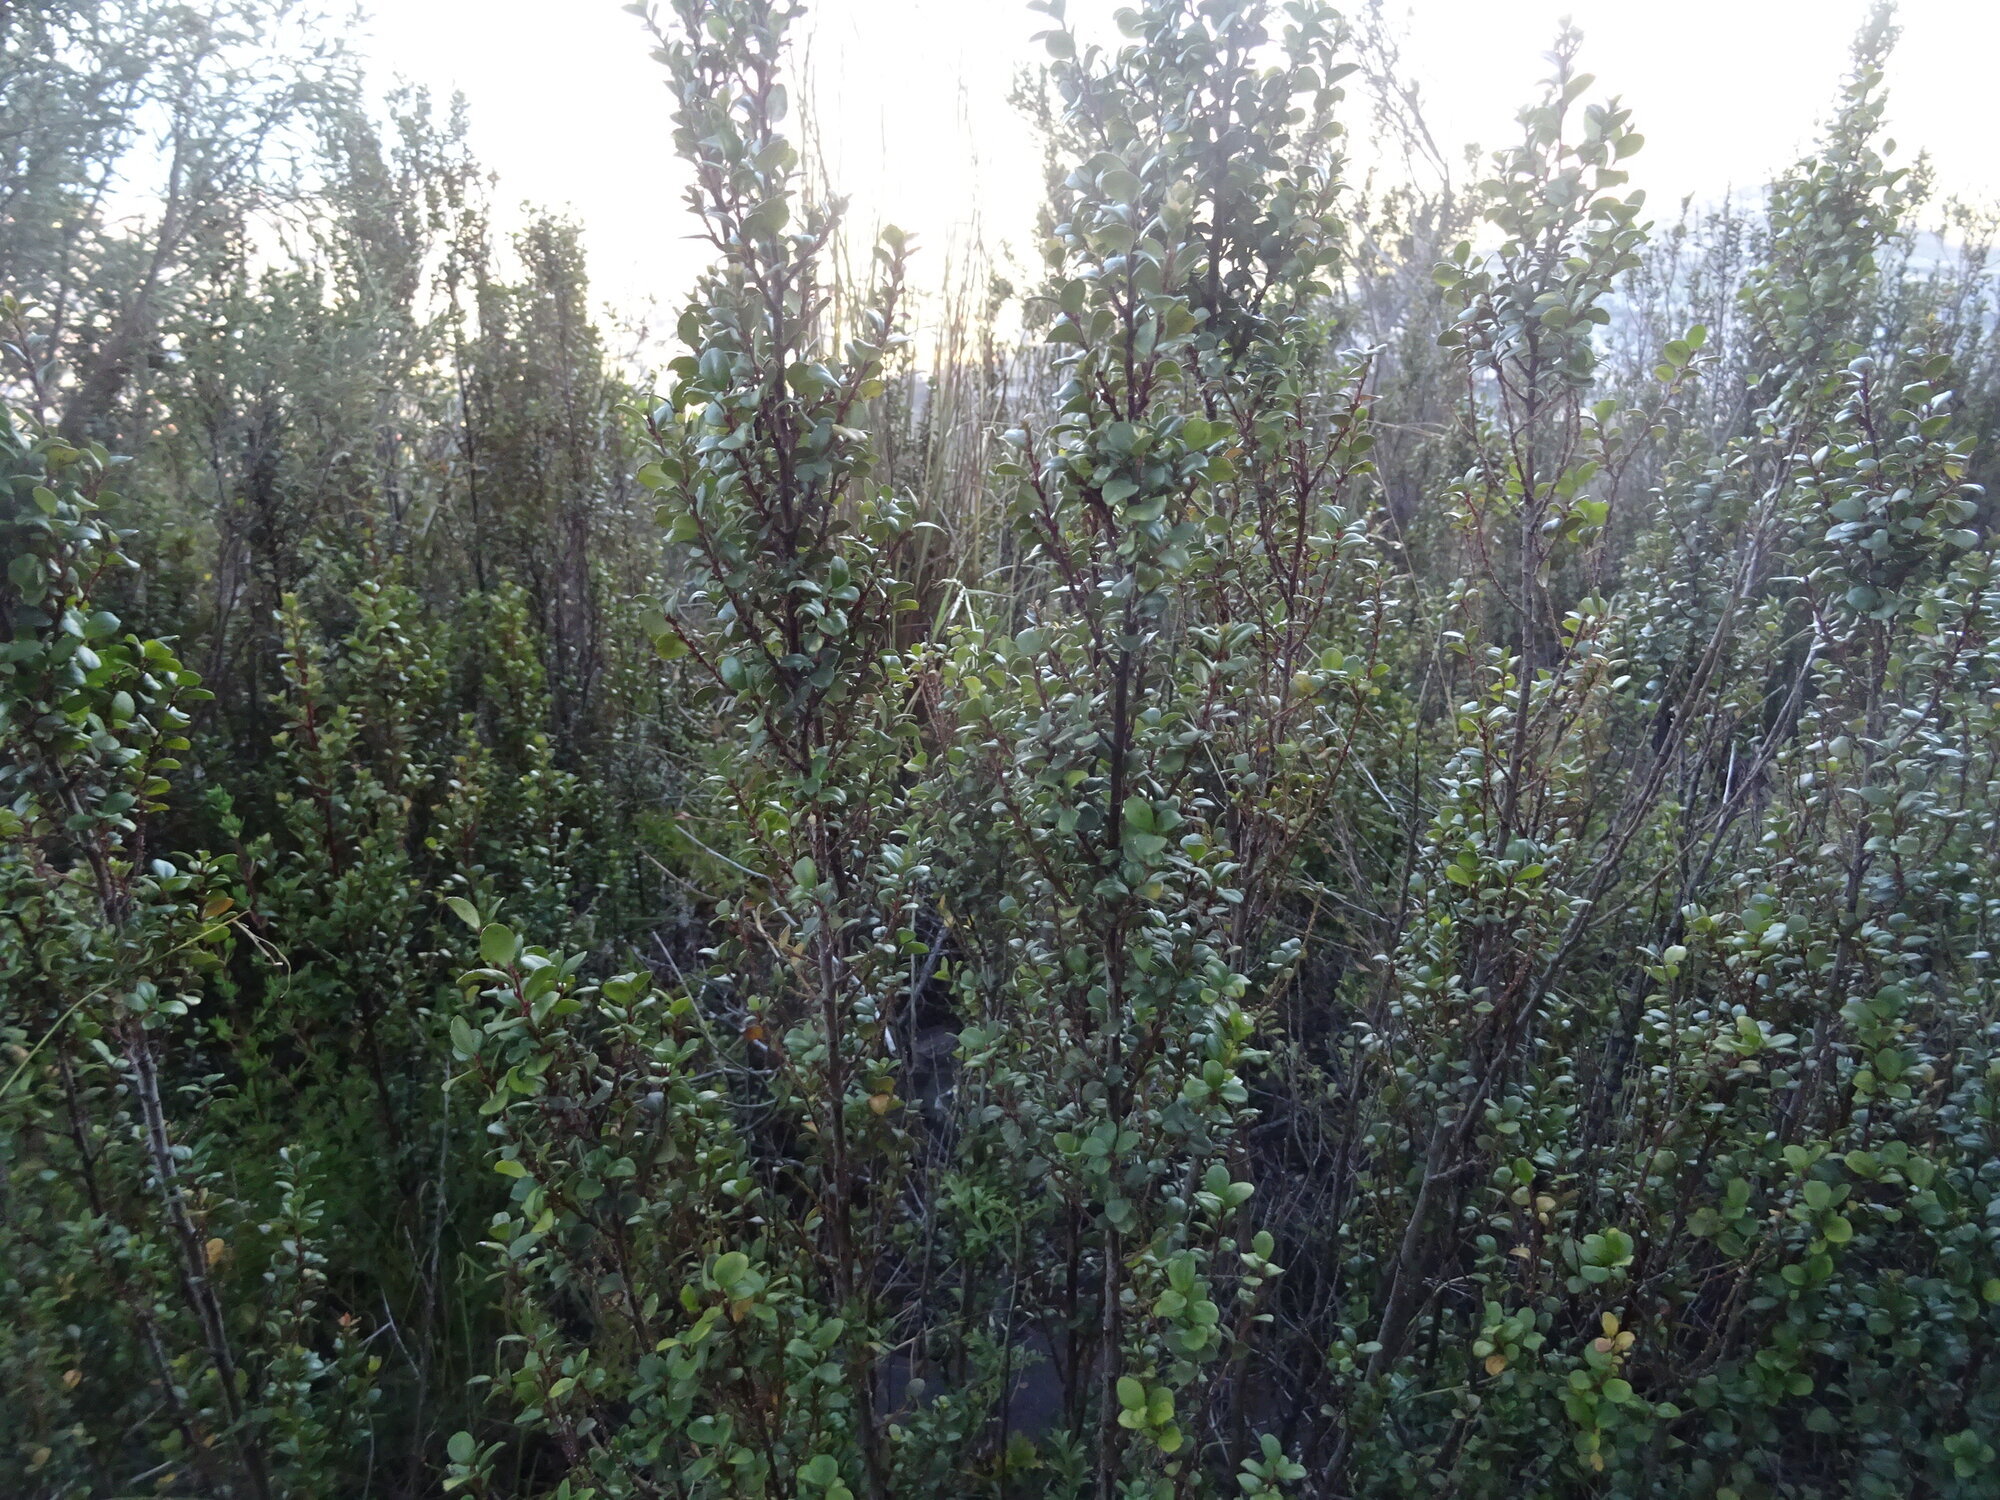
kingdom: Plantae
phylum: Tracheophyta
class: Magnoliopsida
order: Ericales
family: Primulaceae
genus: Myrsine
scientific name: Myrsine africana
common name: African-boxwood
